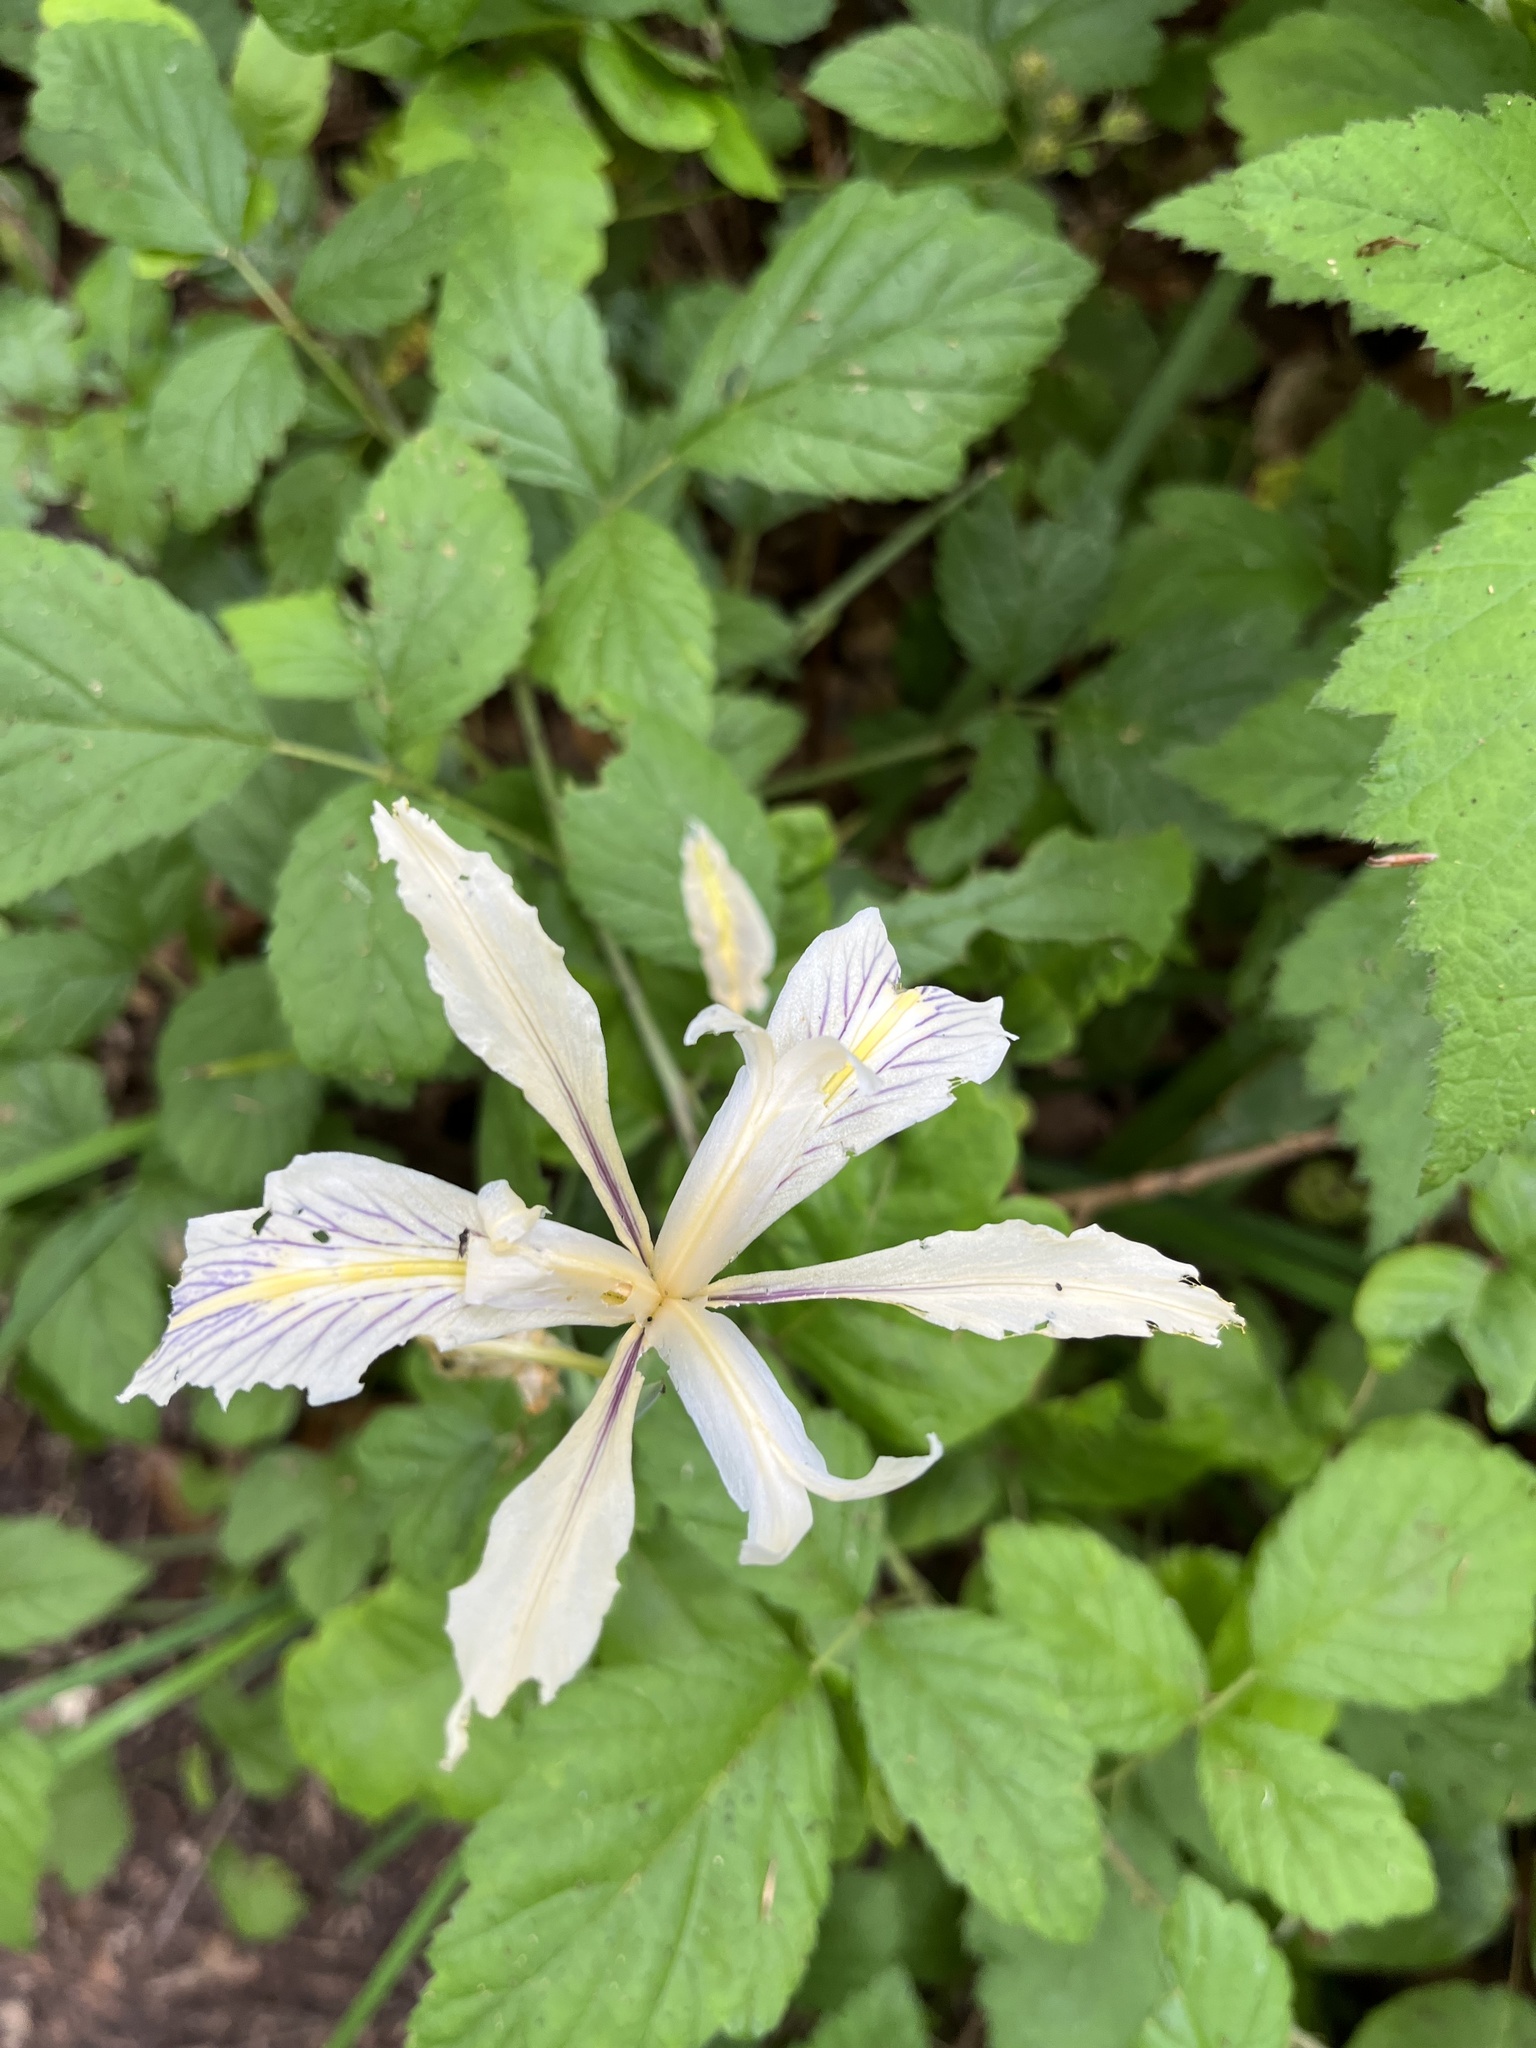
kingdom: Plantae
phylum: Tracheophyta
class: Liliopsida
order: Asparagales
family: Iridaceae
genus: Iris
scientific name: Iris fernaldii
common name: Fernald's iris
